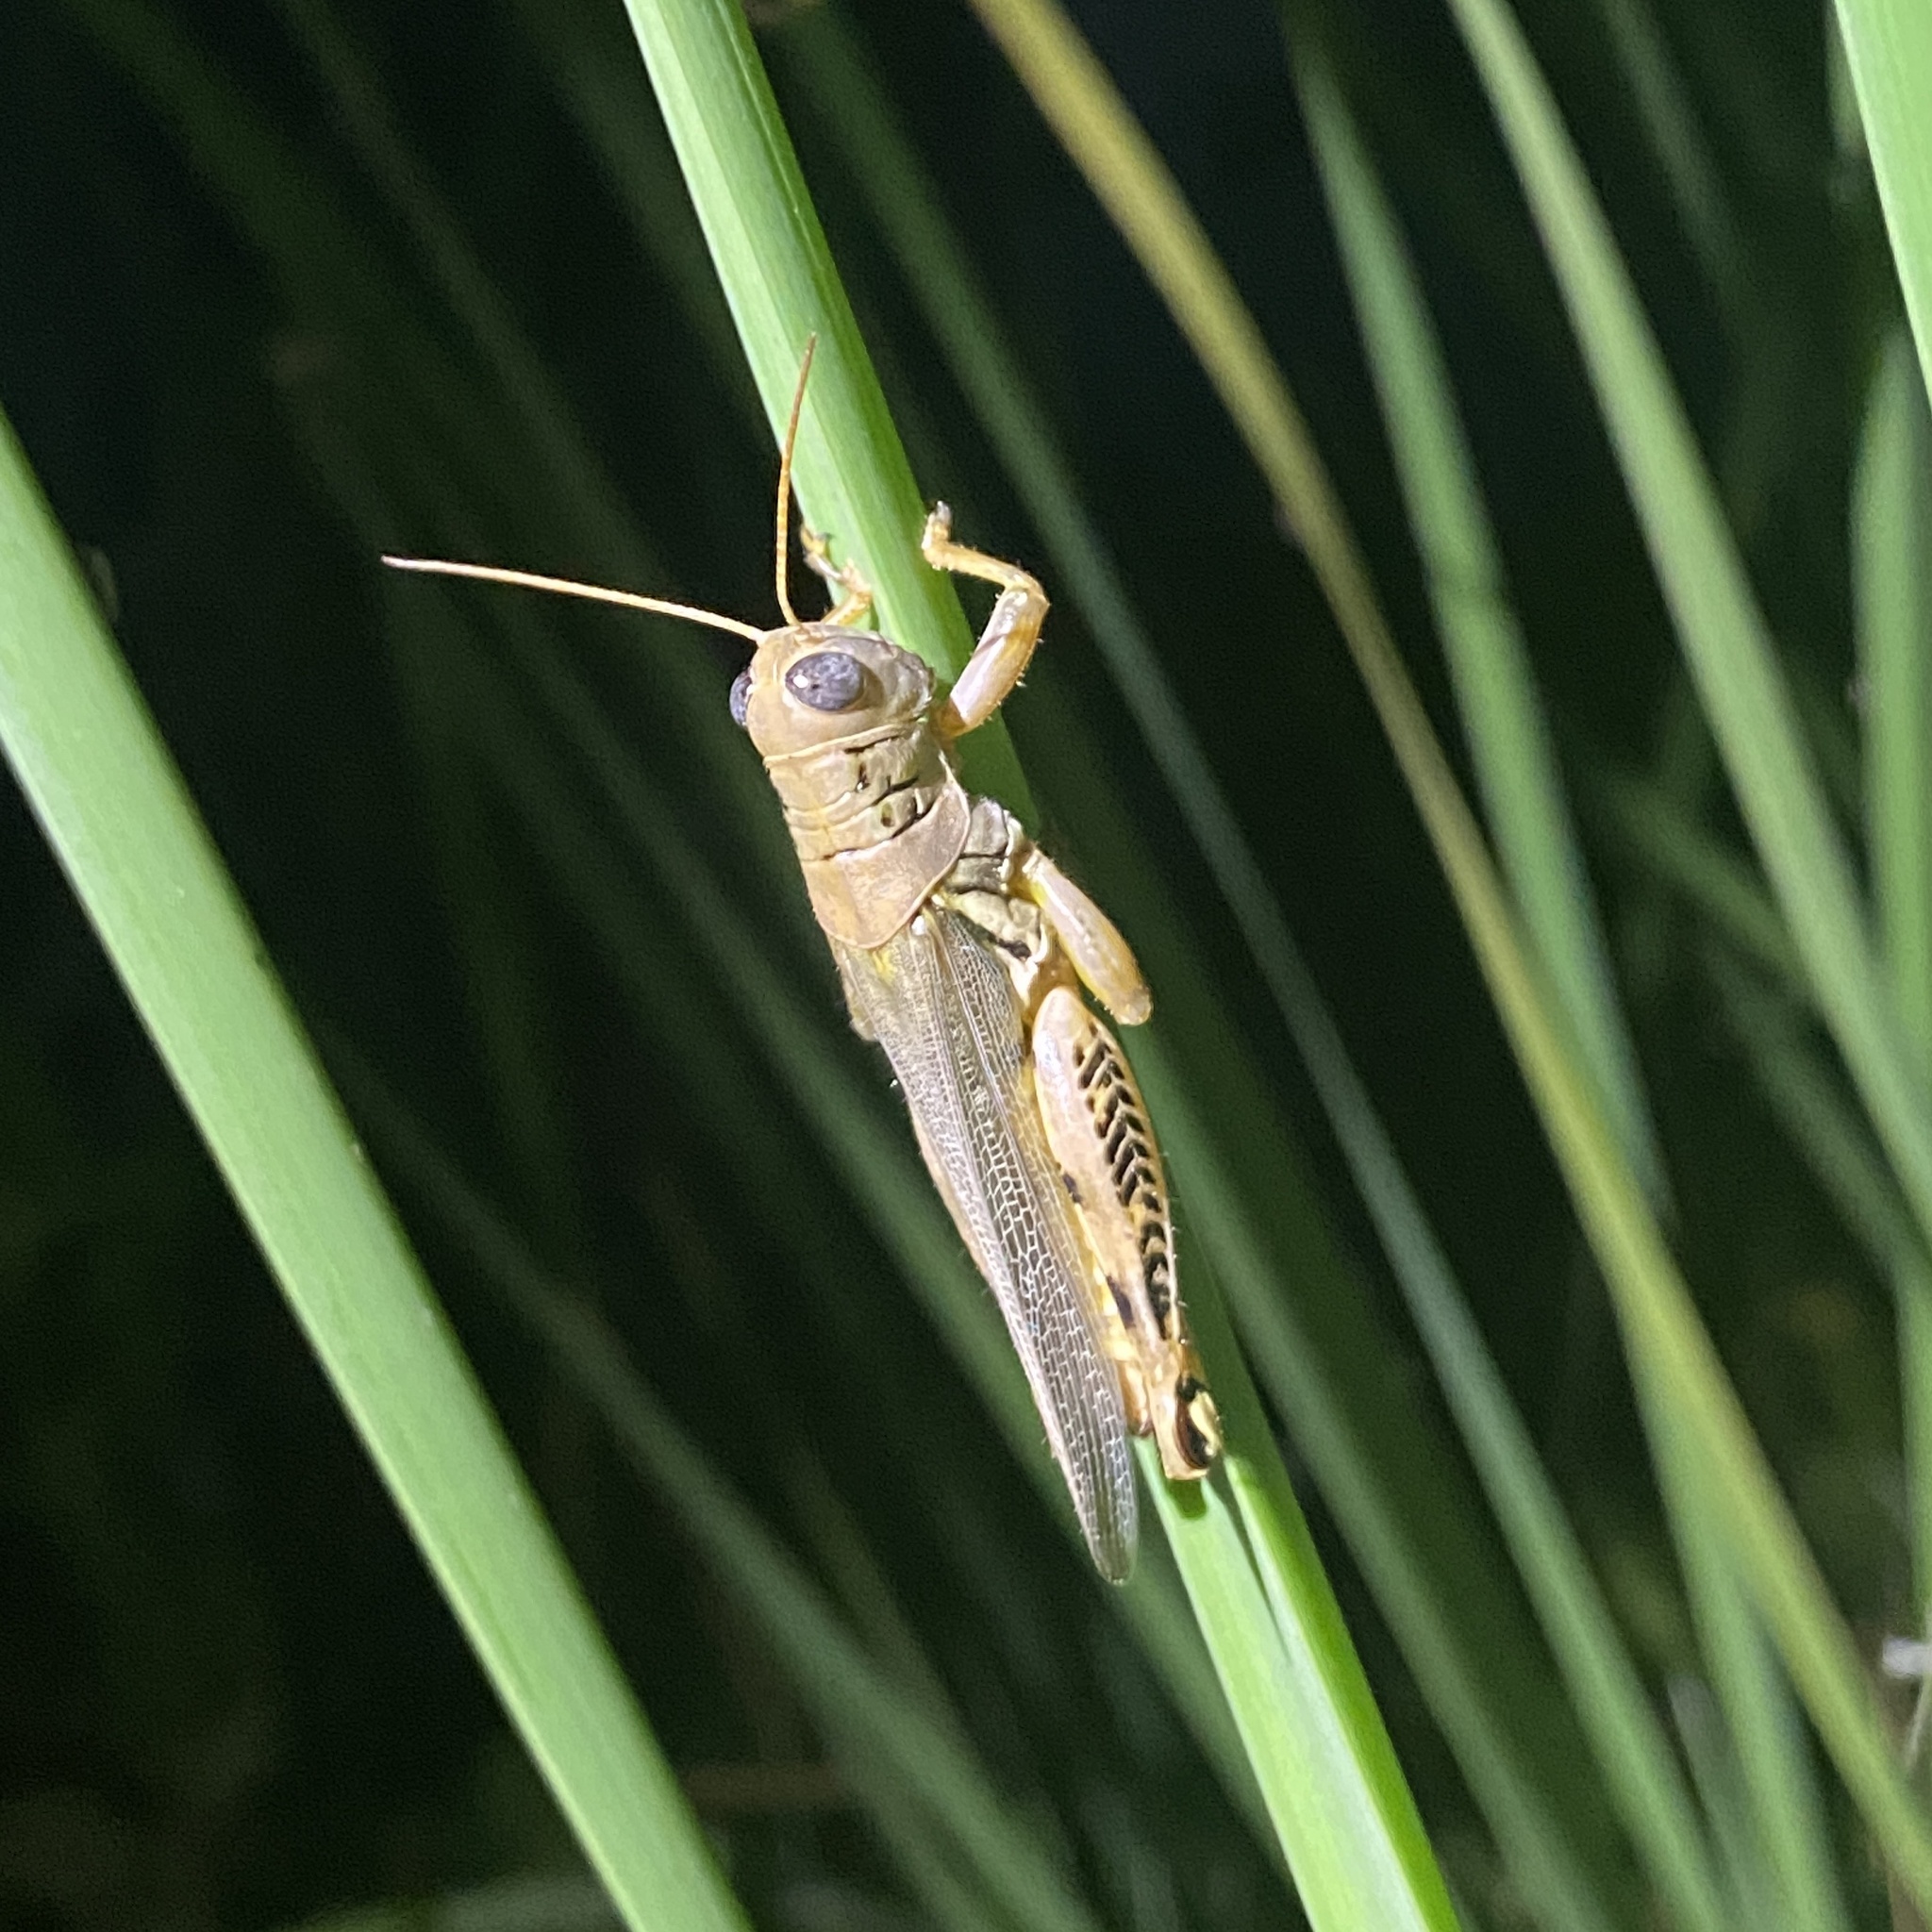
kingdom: Animalia
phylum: Arthropoda
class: Insecta
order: Orthoptera
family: Acrididae
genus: Melanoplus
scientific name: Melanoplus differentialis
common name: Differential grasshopper
